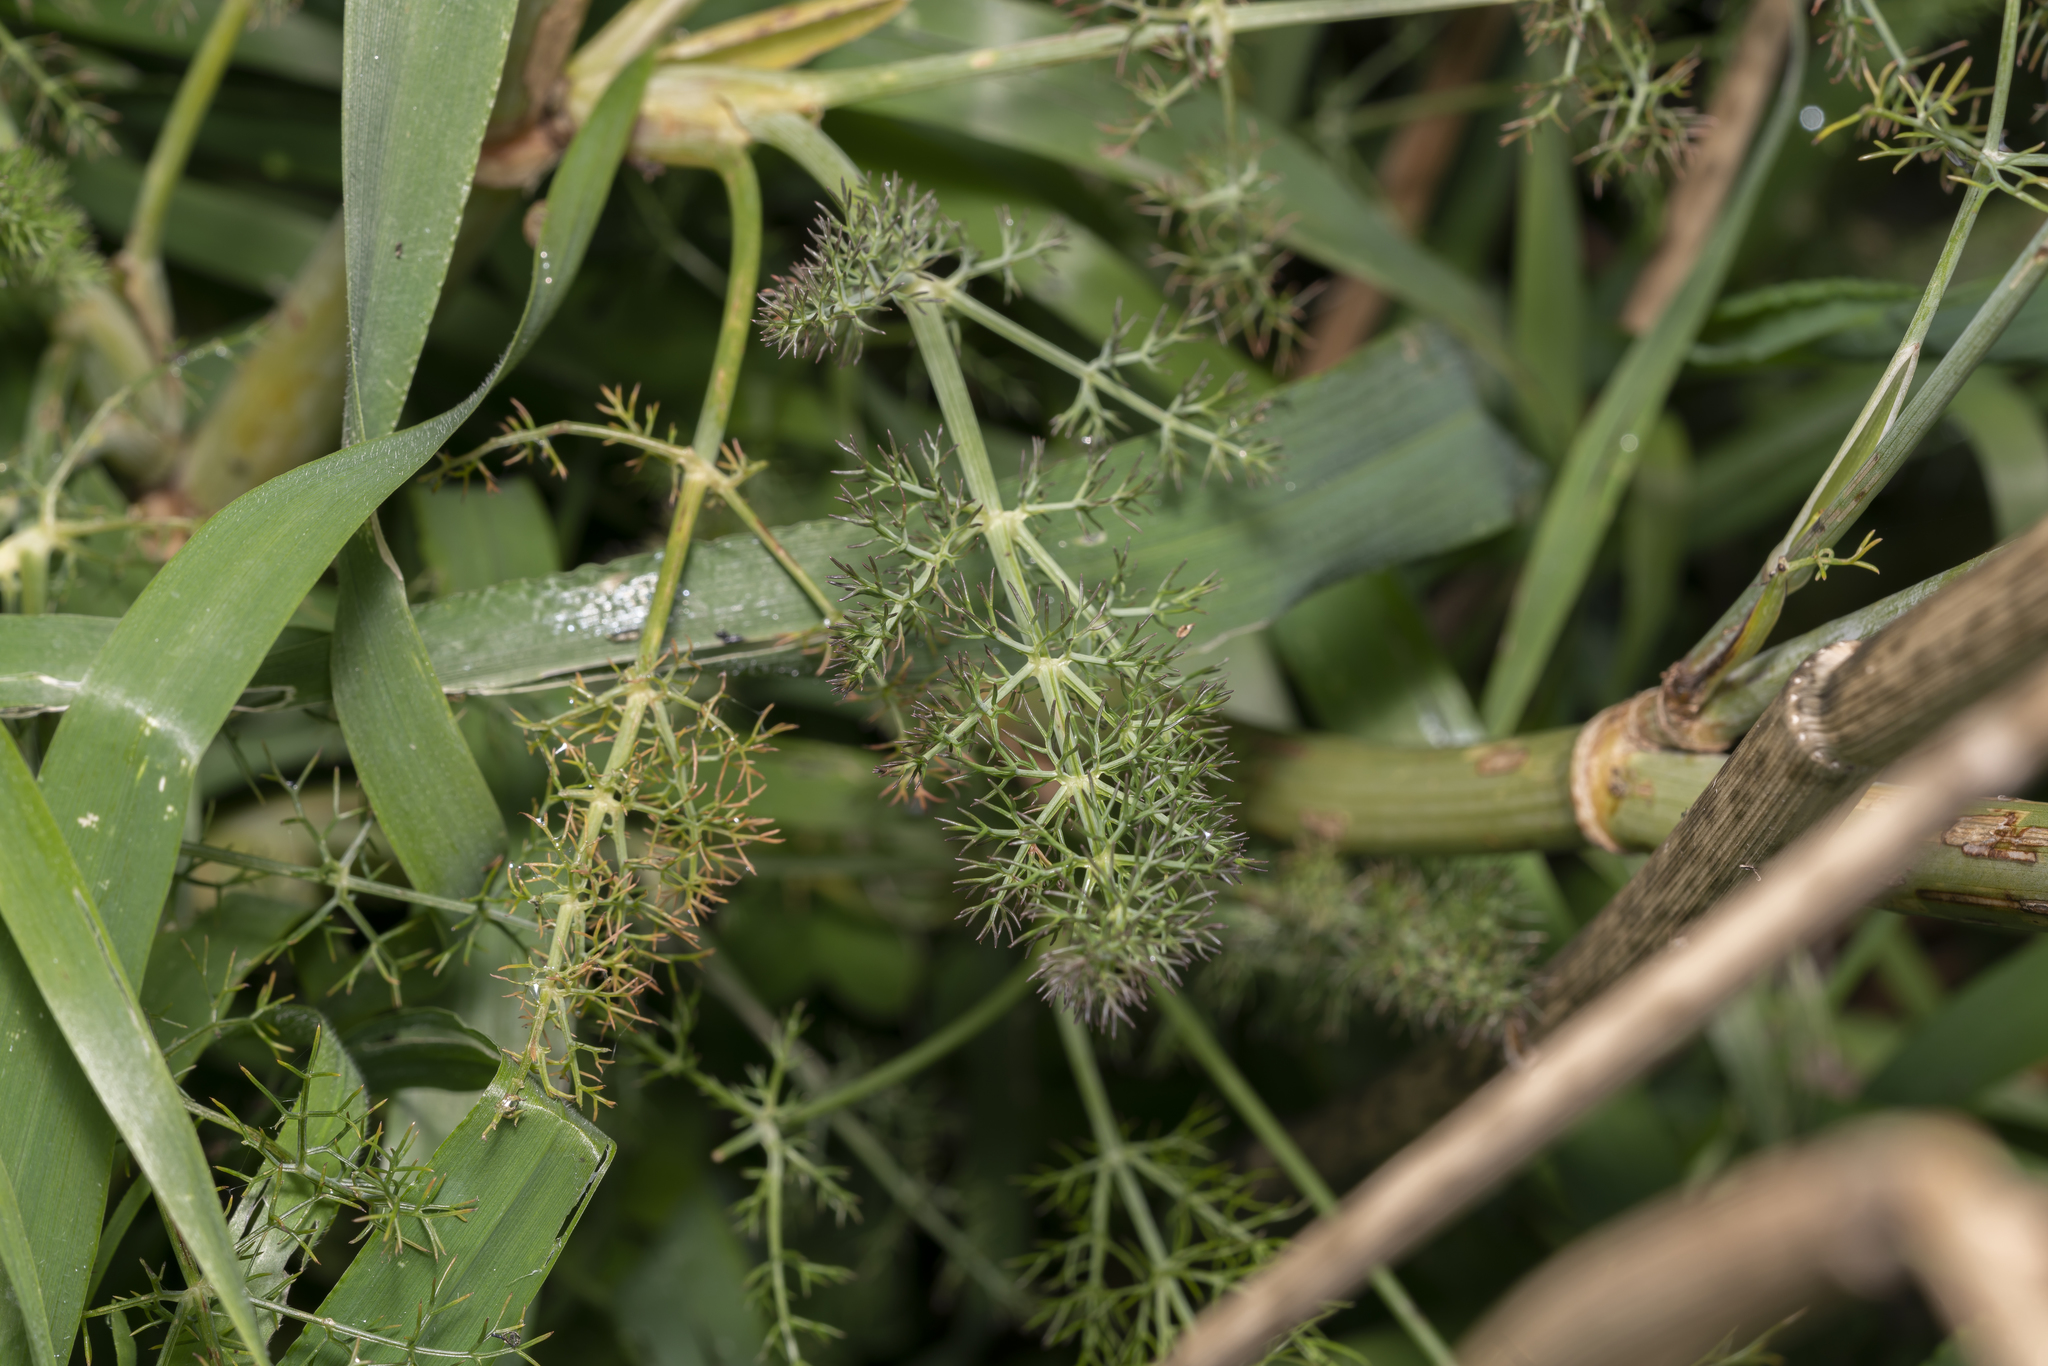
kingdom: Plantae
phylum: Tracheophyta
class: Magnoliopsida
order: Apiales
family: Apiaceae
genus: Foeniculum
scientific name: Foeniculum vulgare
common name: Fennel
